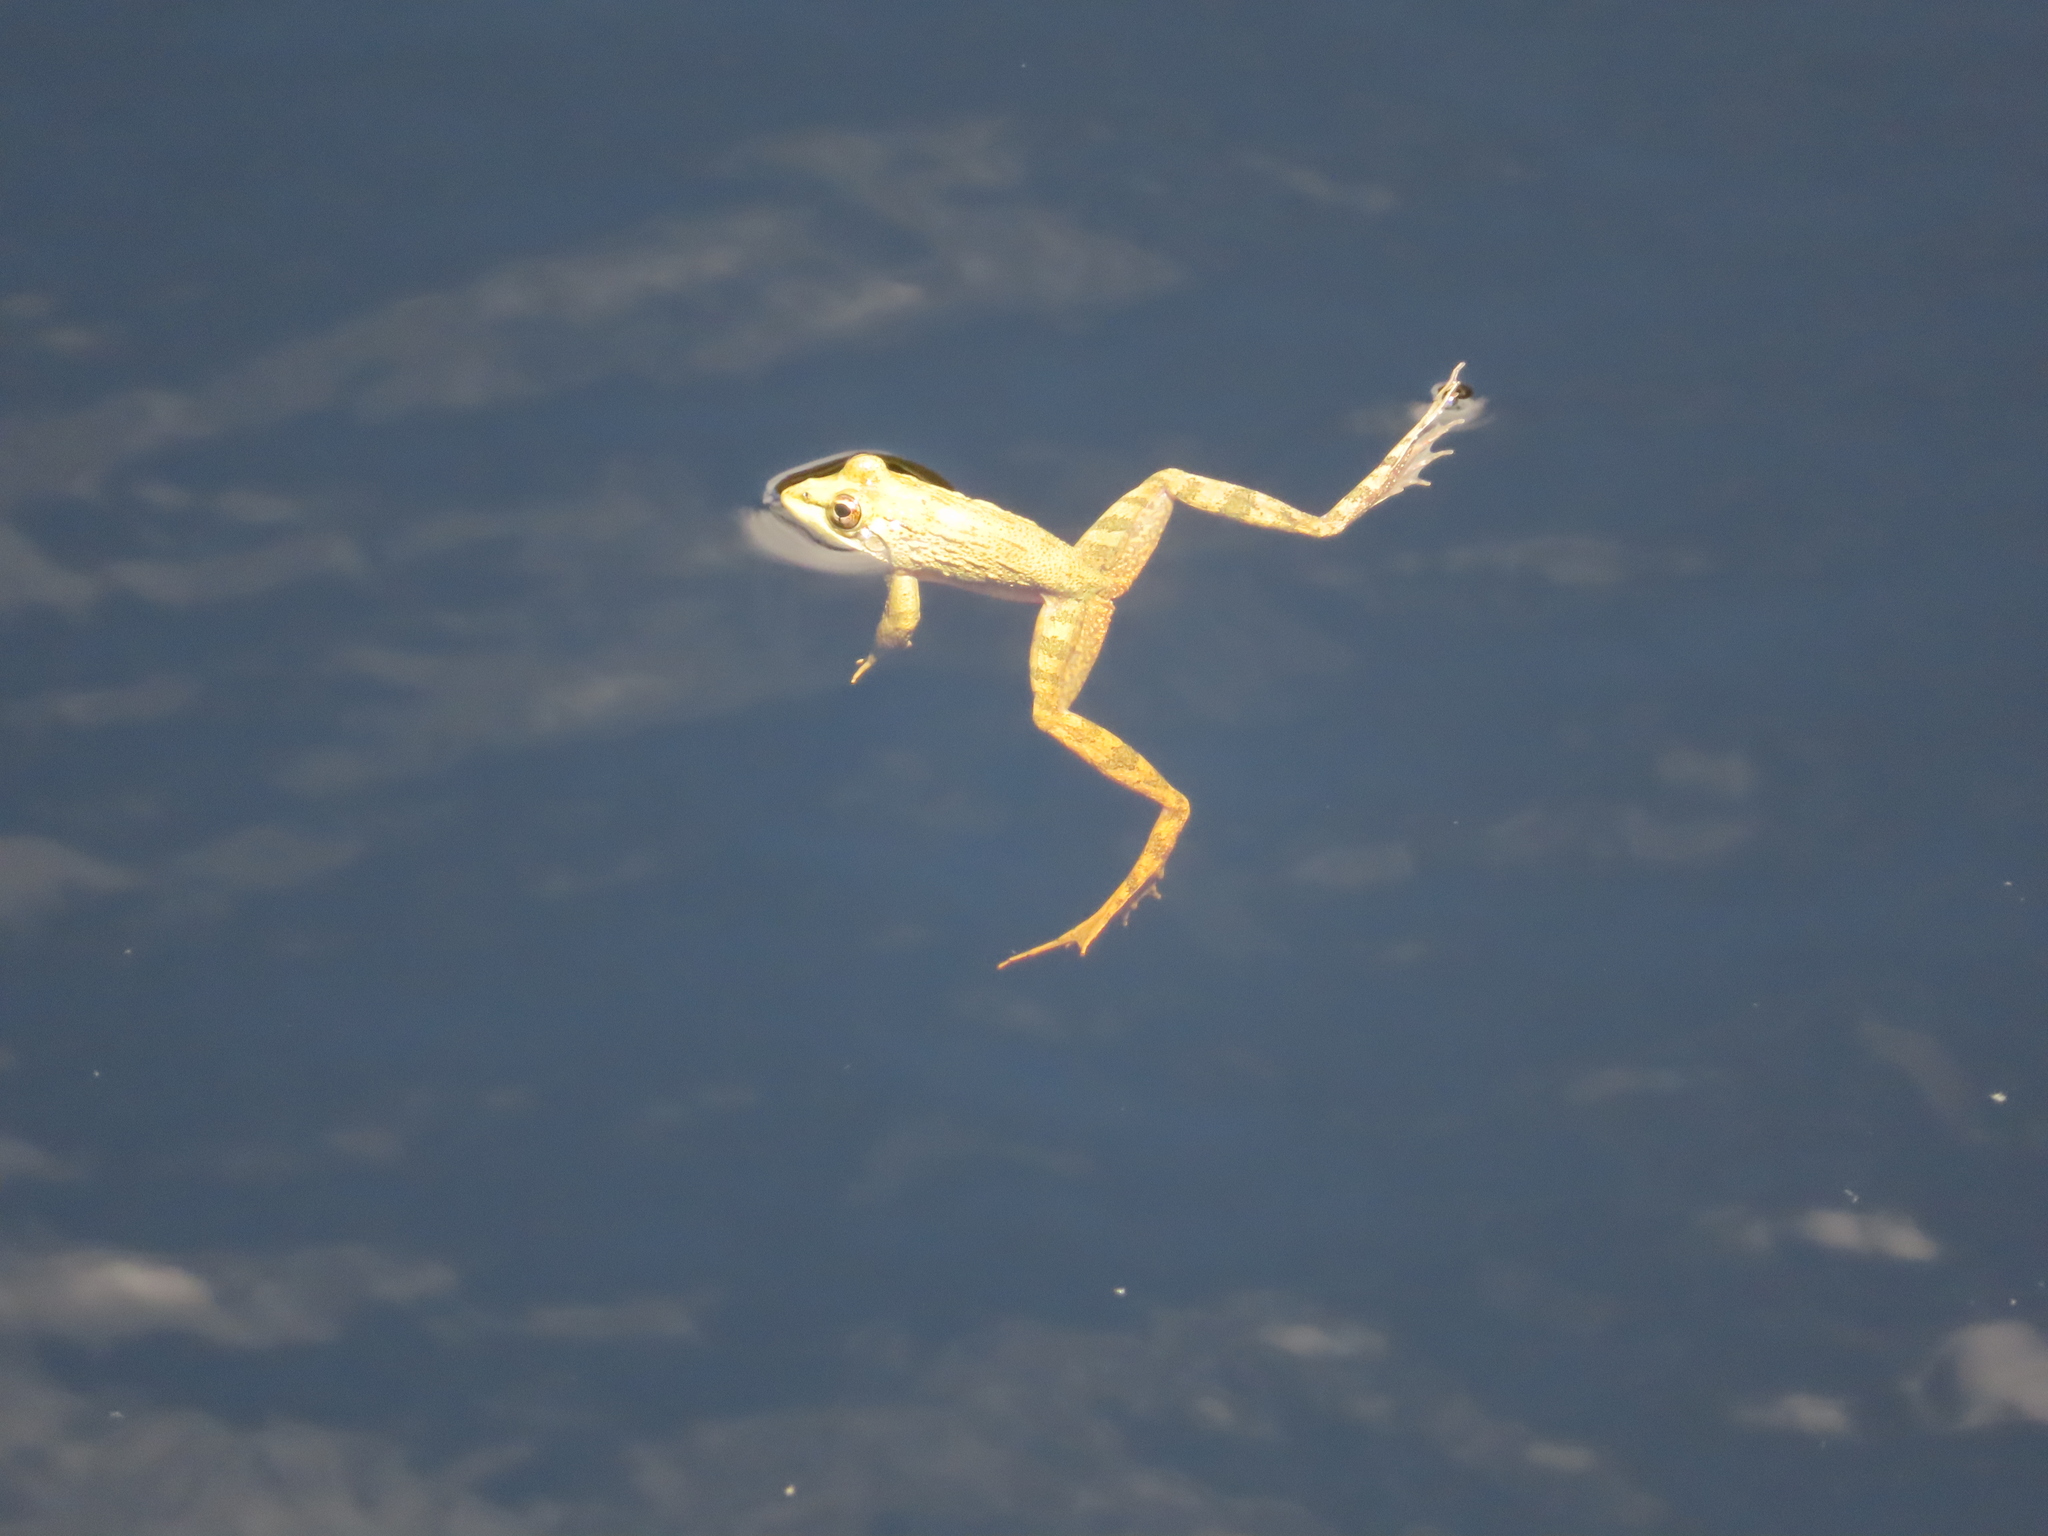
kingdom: Animalia
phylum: Chordata
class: Amphibia
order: Anura
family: Pyxicephalidae
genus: Amietia
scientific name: Amietia fuscigula
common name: Cape rana
